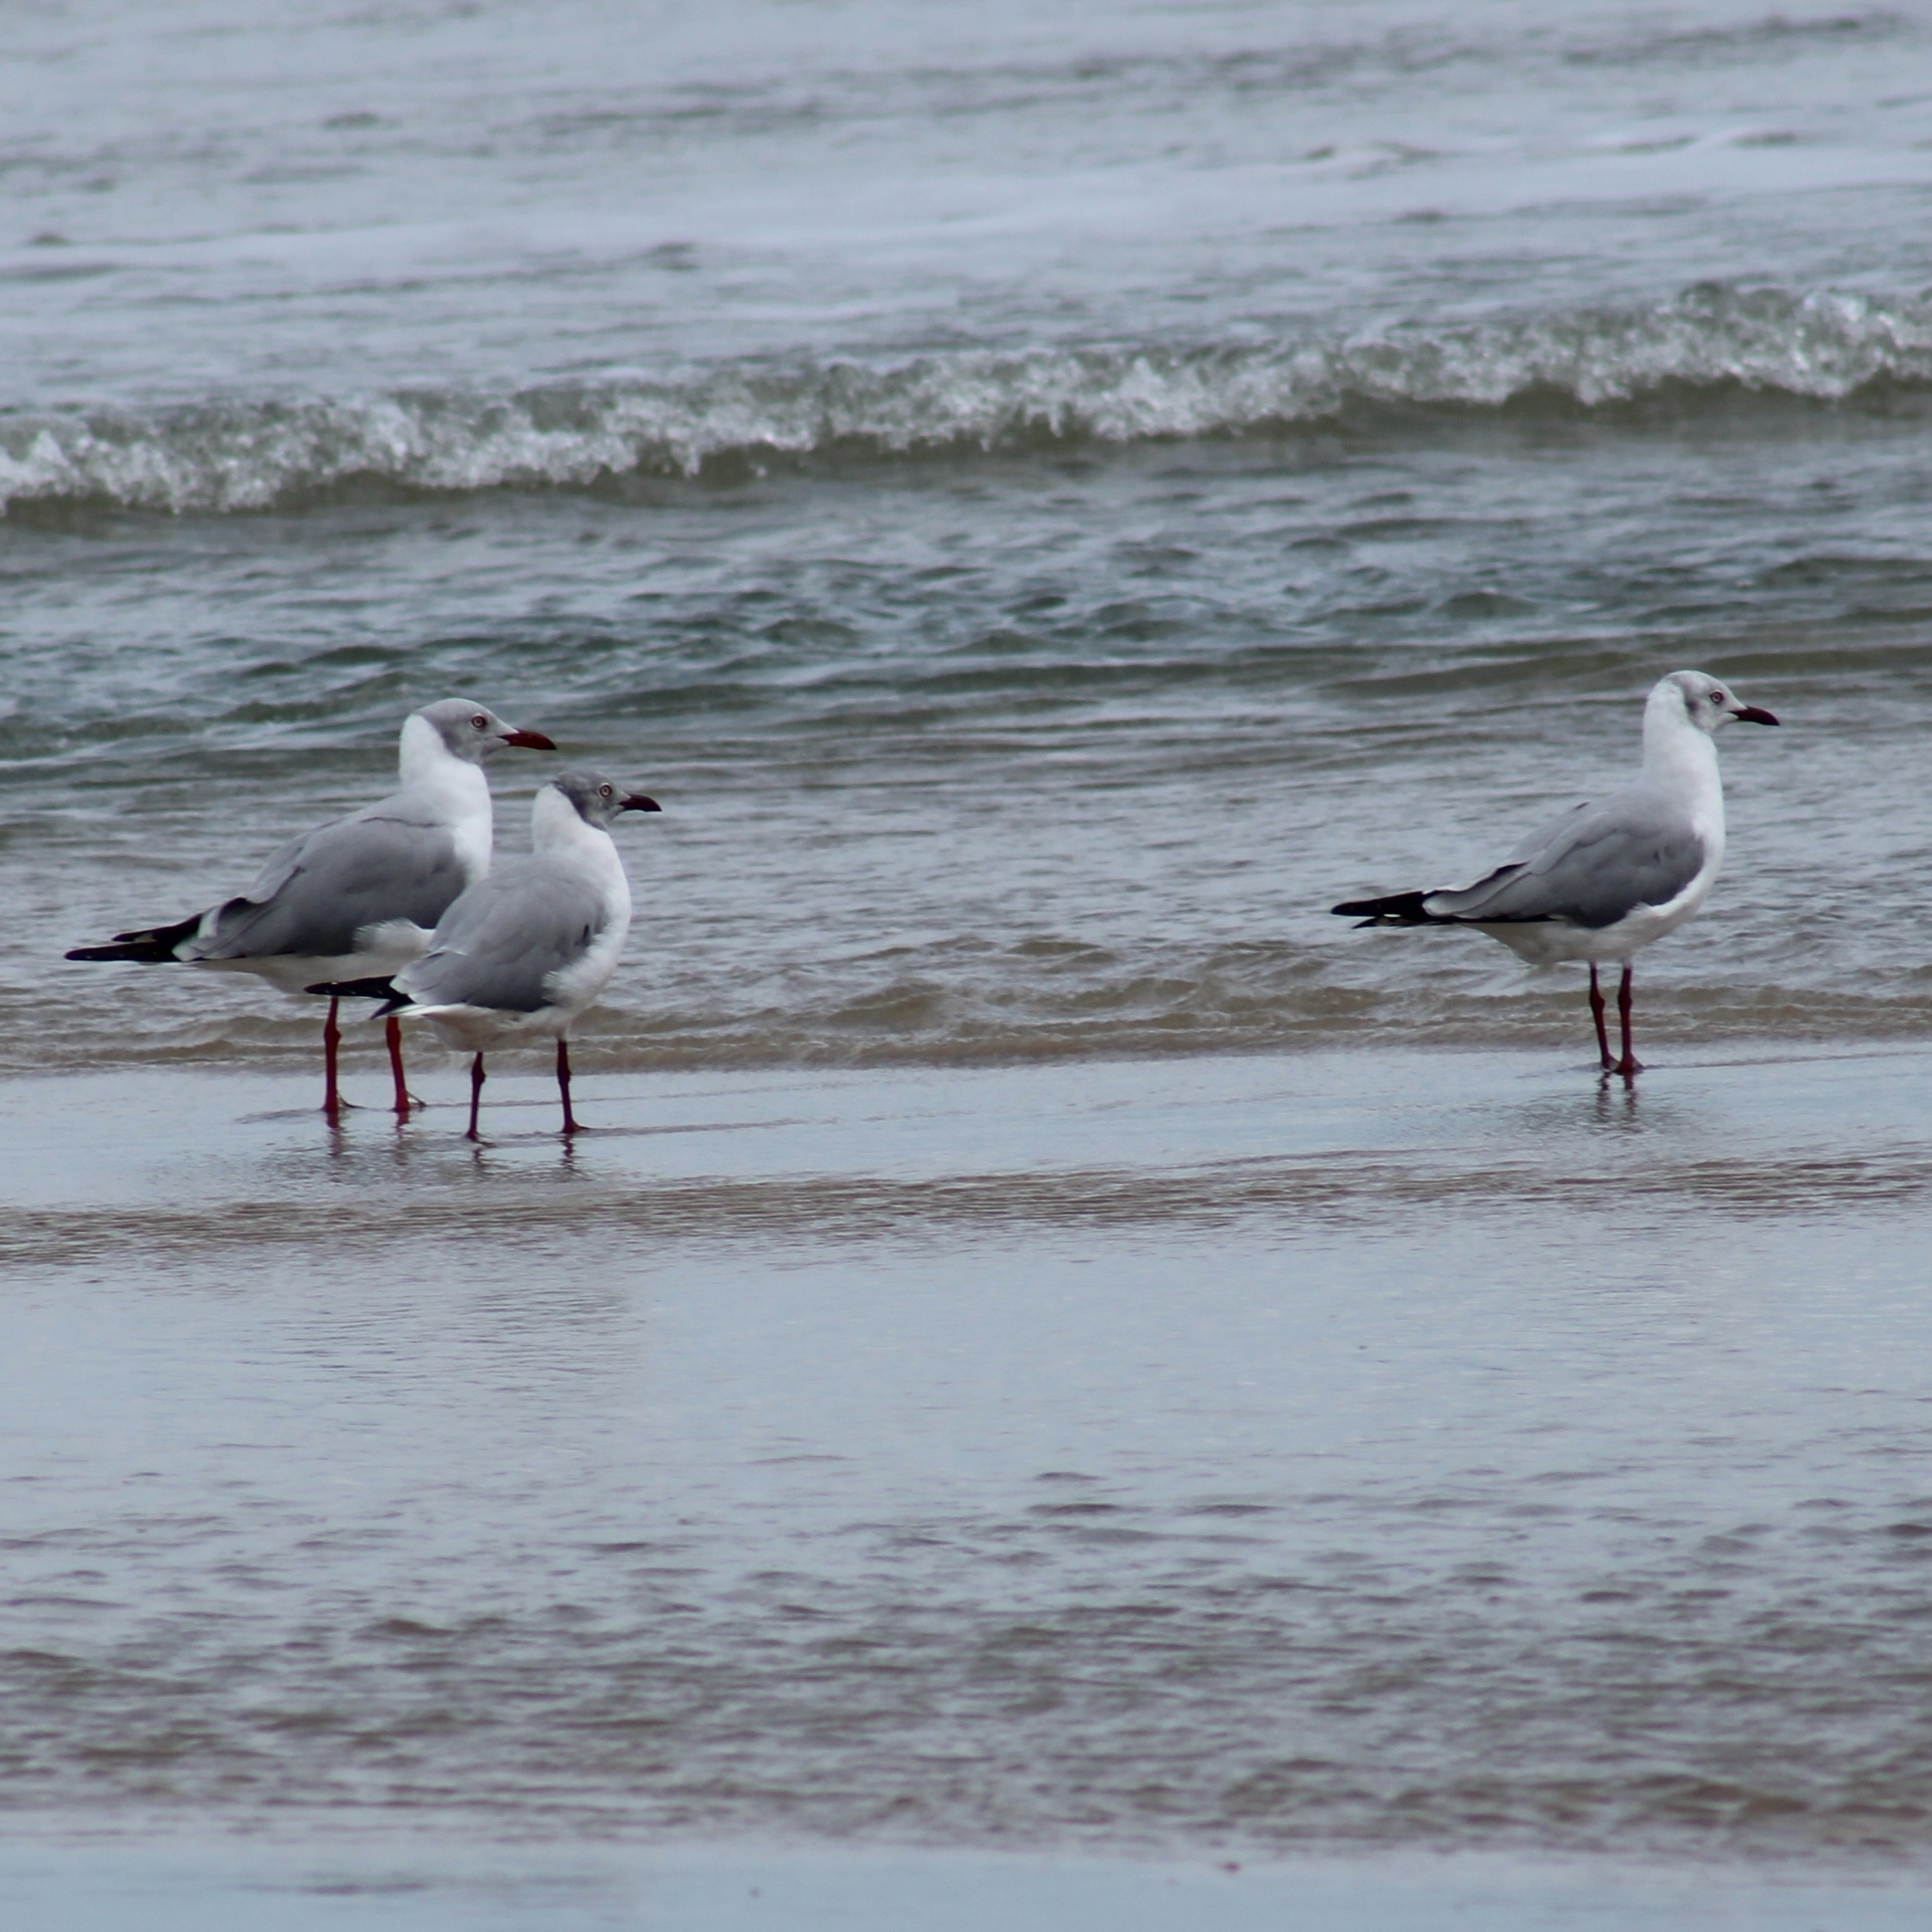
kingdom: Animalia
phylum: Chordata
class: Aves
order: Charadriiformes
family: Laridae
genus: Chroicocephalus
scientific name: Chroicocephalus cirrocephalus
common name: Grey-headed gull
